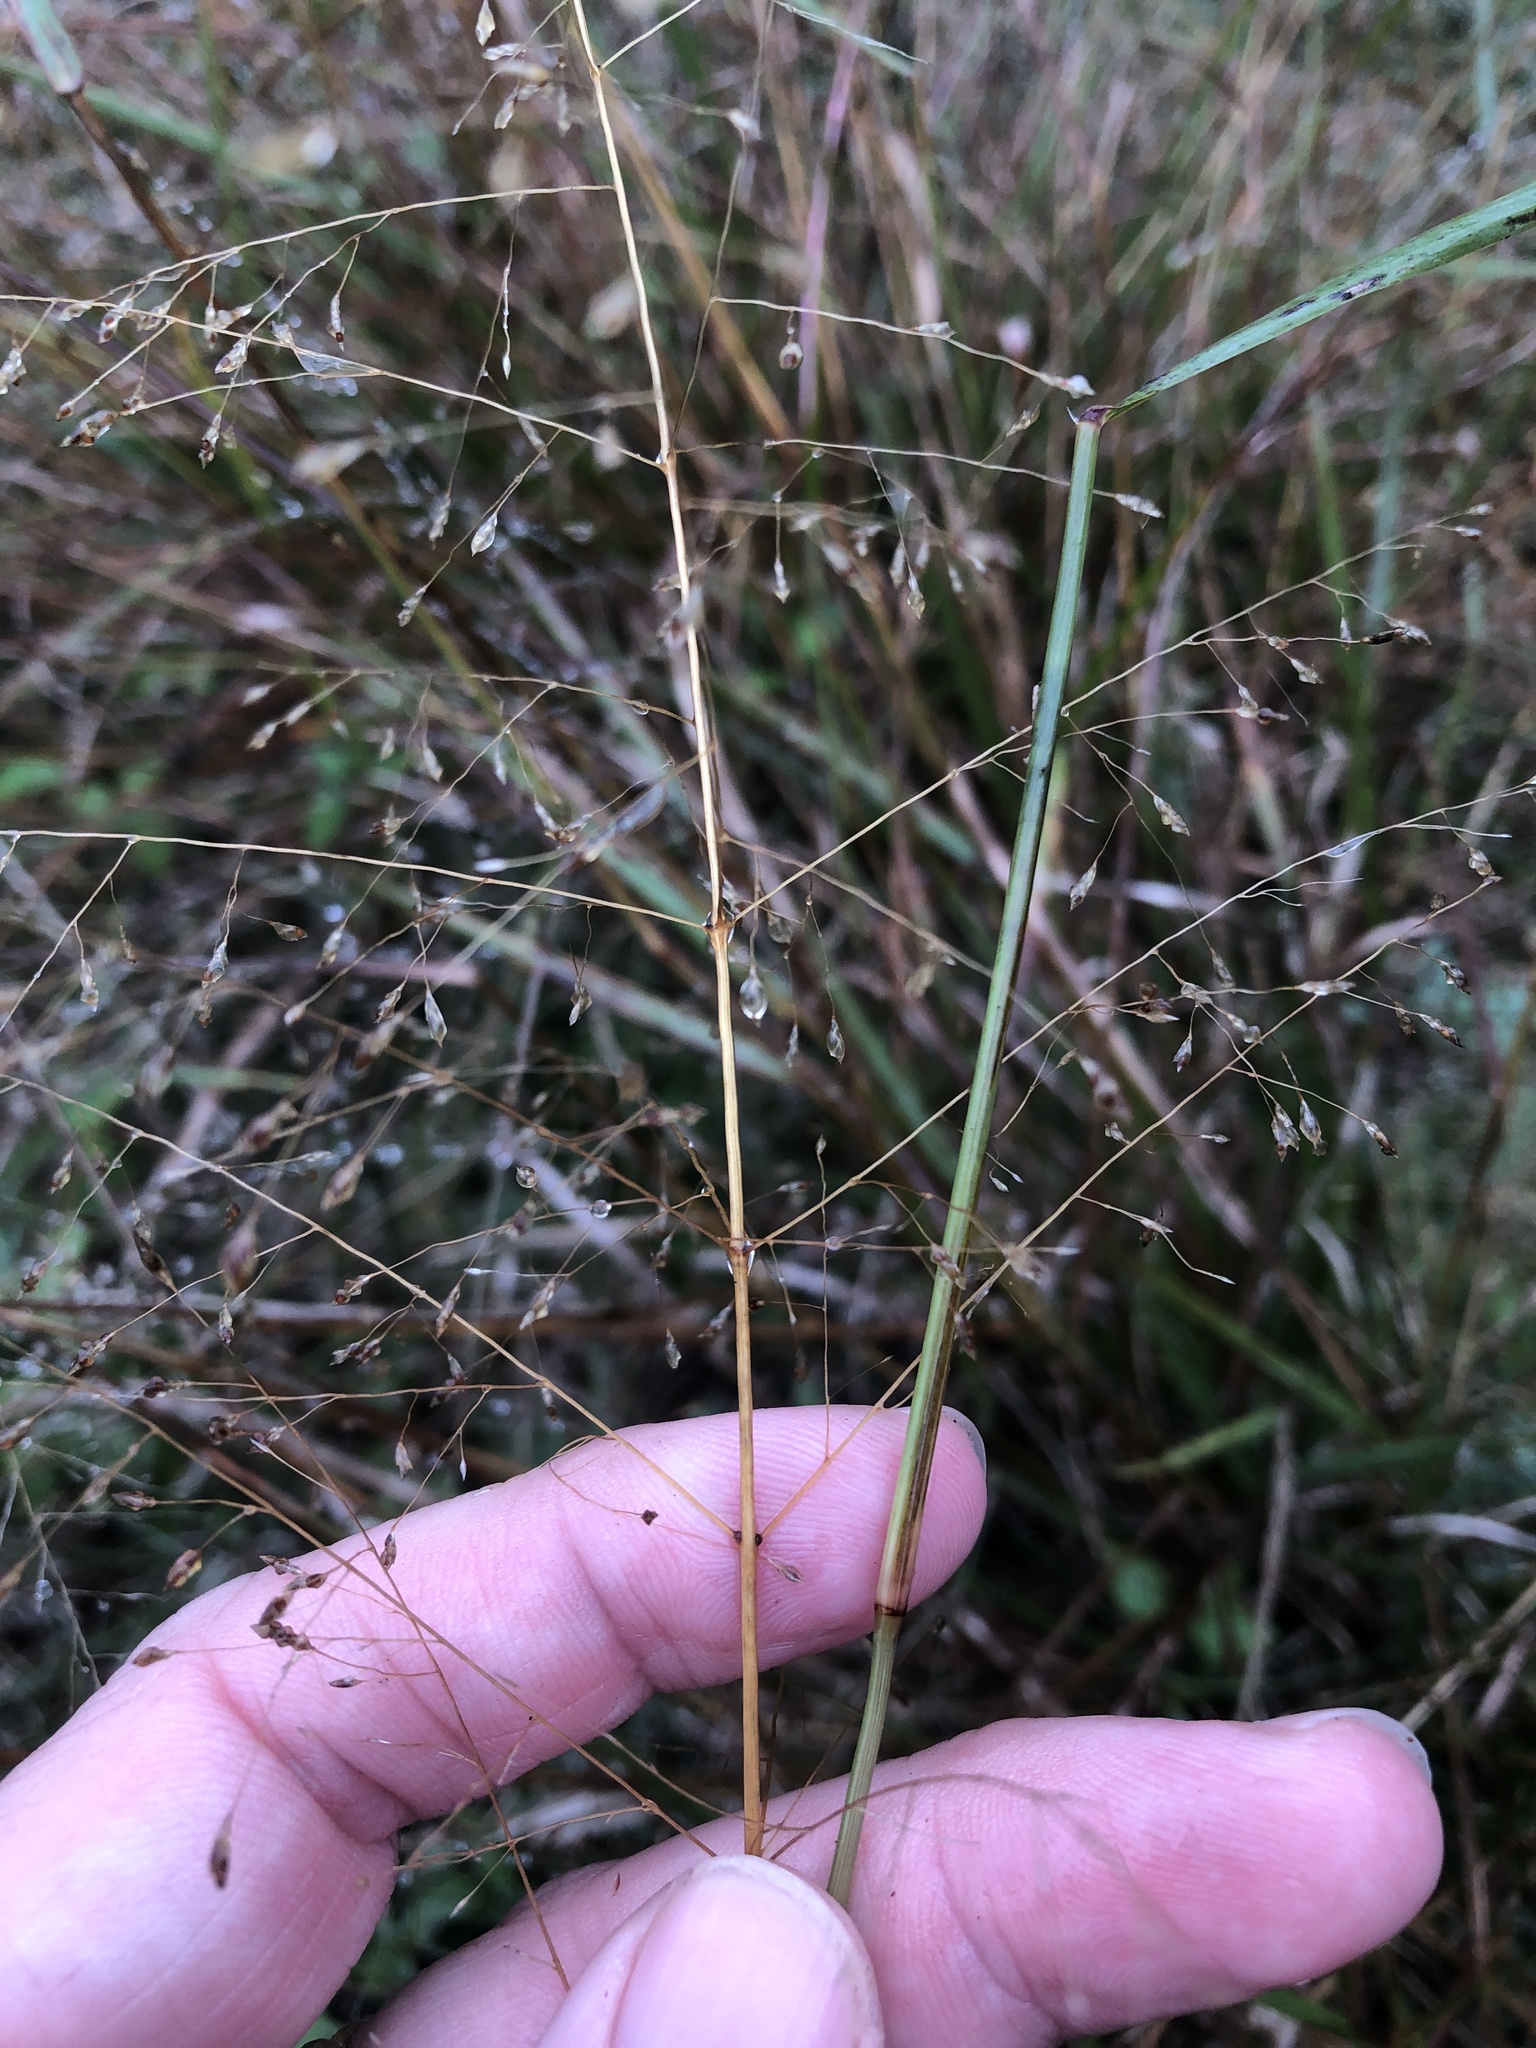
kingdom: Plantae
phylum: Tracheophyta
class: Liliopsida
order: Poales
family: Poaceae
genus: Eragrostis
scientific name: Eragrostis intermedia
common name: Plains love grass
